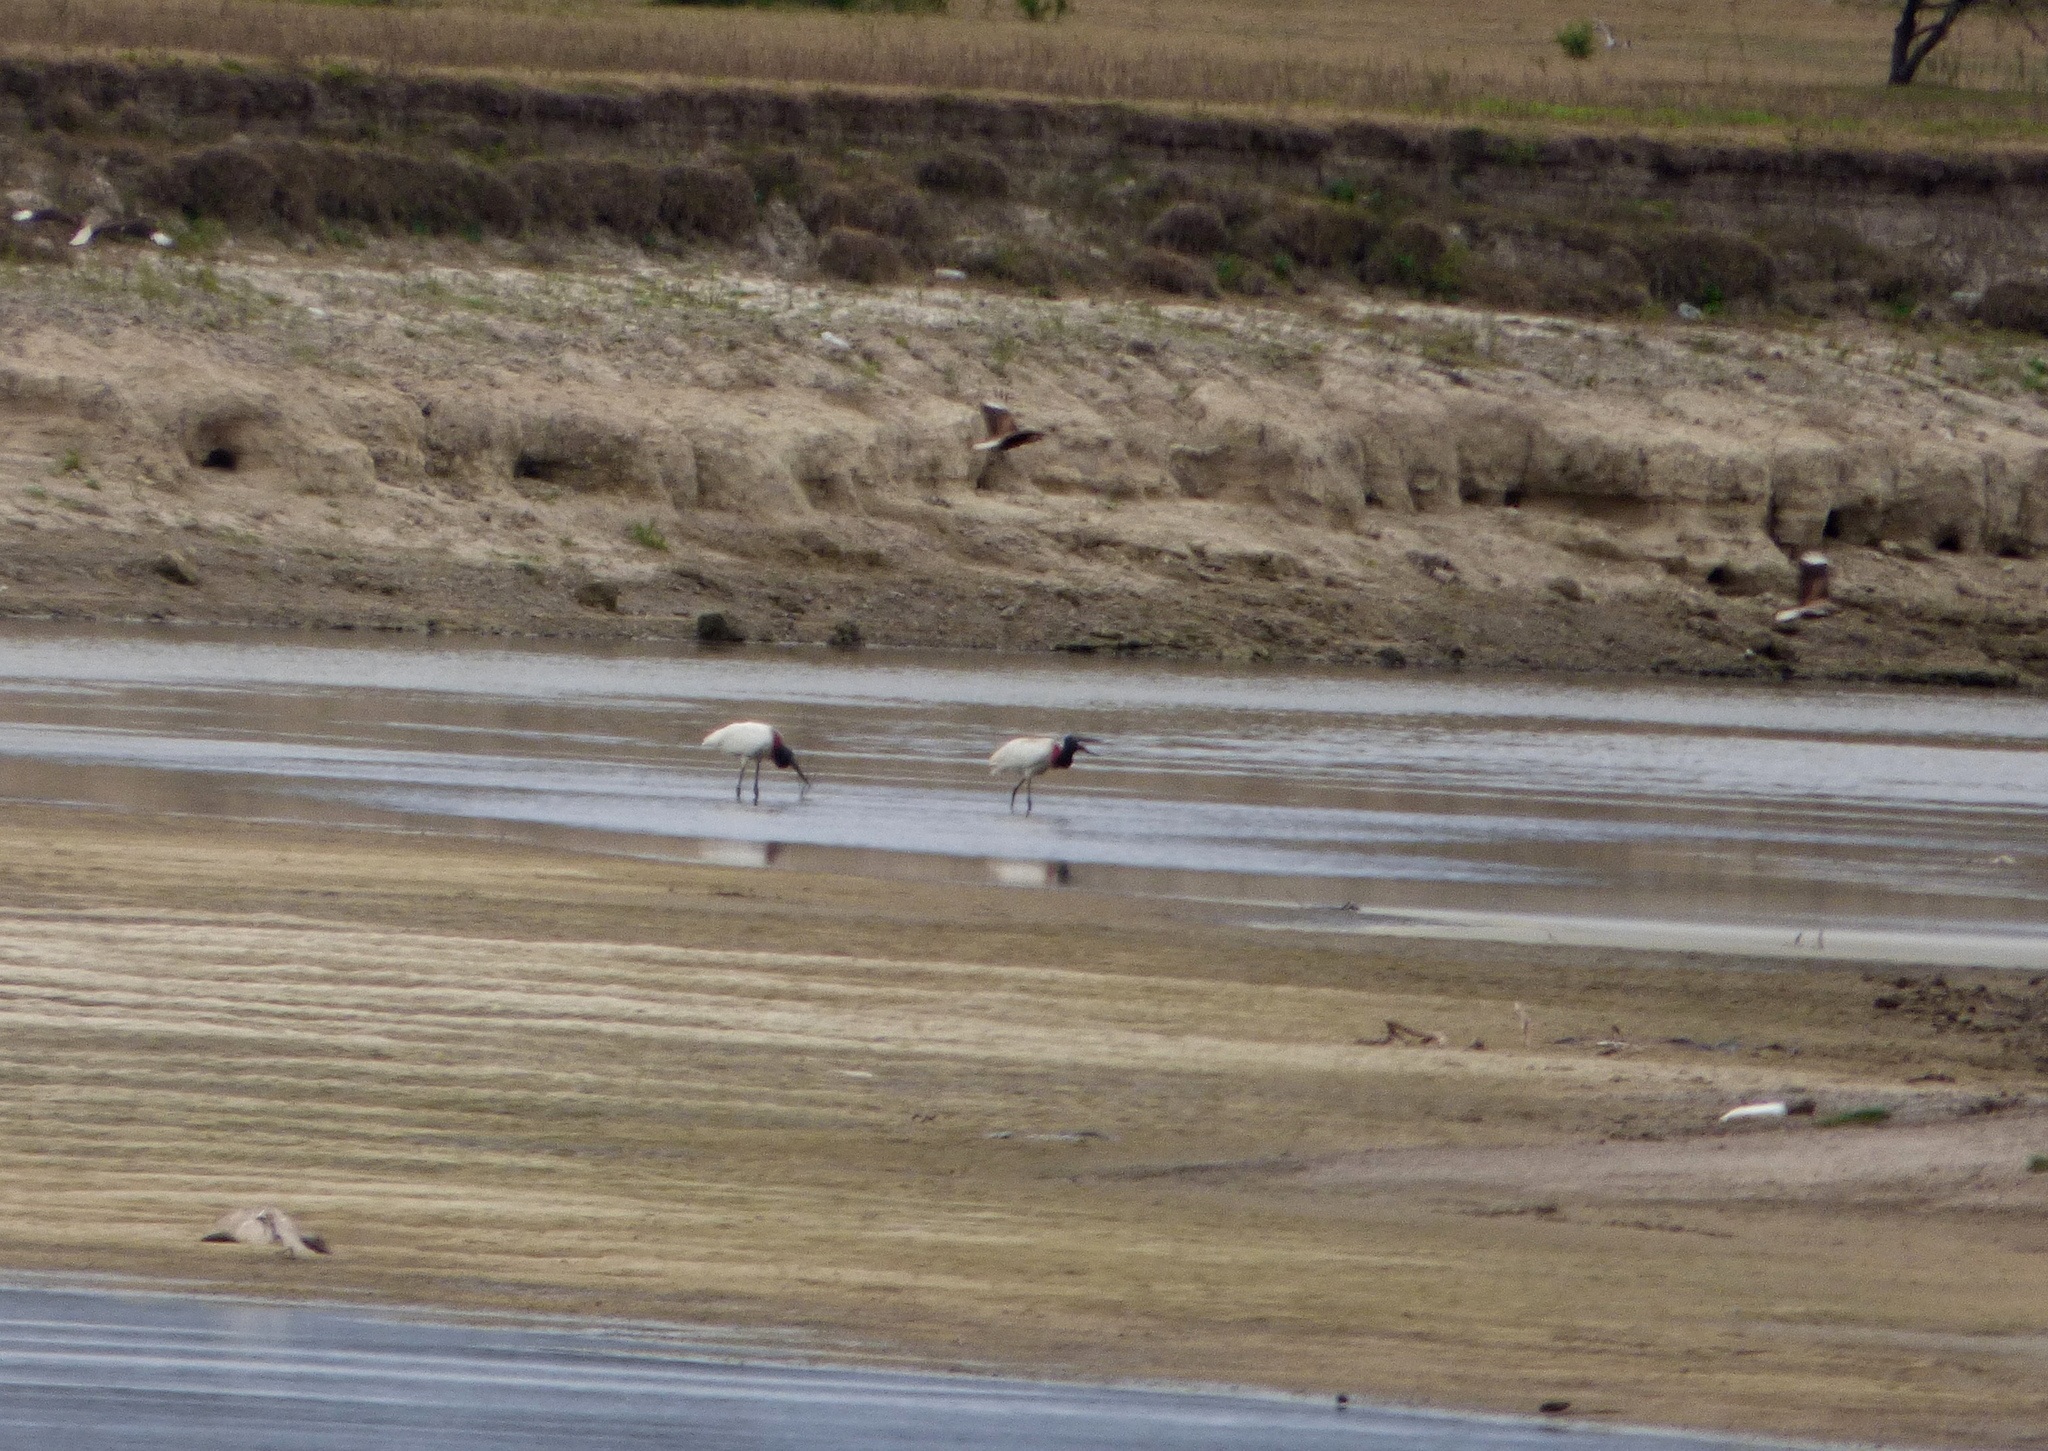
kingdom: Animalia
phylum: Chordata
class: Aves
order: Ciconiiformes
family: Ciconiidae
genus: Jabiru
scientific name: Jabiru mycteria
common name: Jabiru
